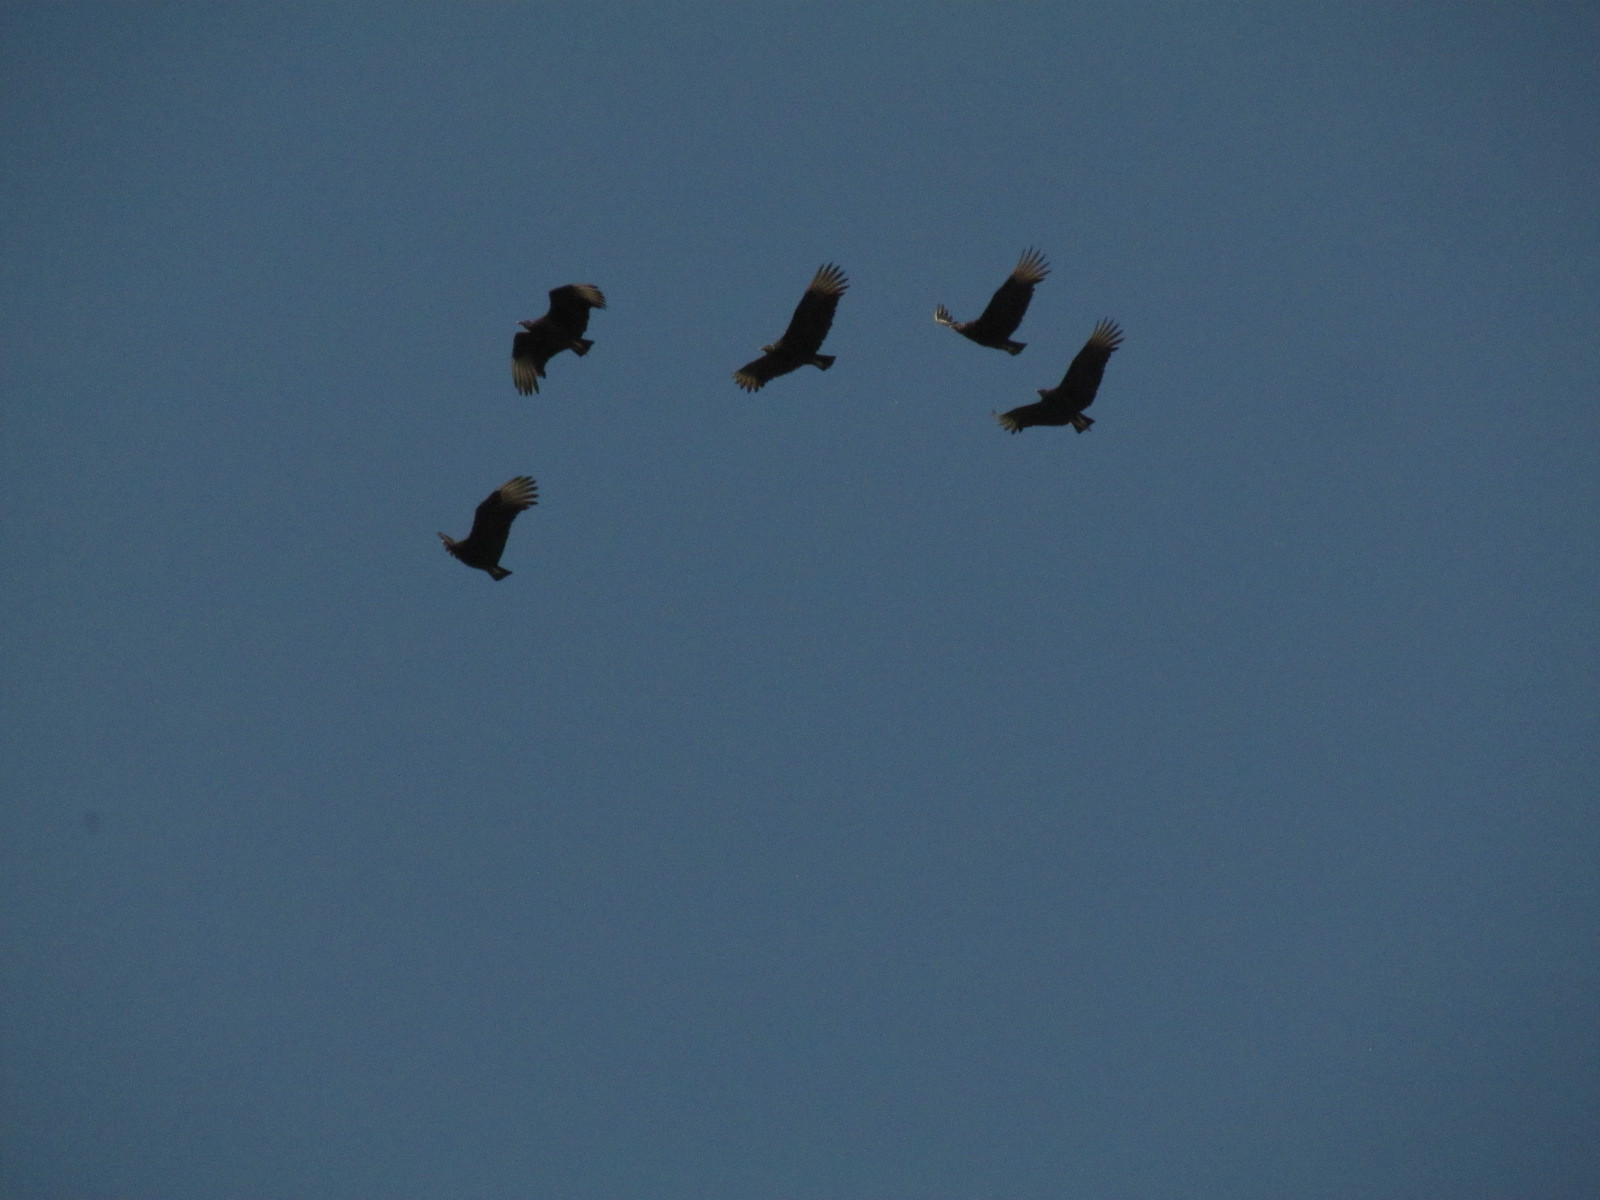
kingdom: Animalia
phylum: Chordata
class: Aves
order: Accipitriformes
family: Cathartidae
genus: Coragyps
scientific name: Coragyps atratus
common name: Black vulture
